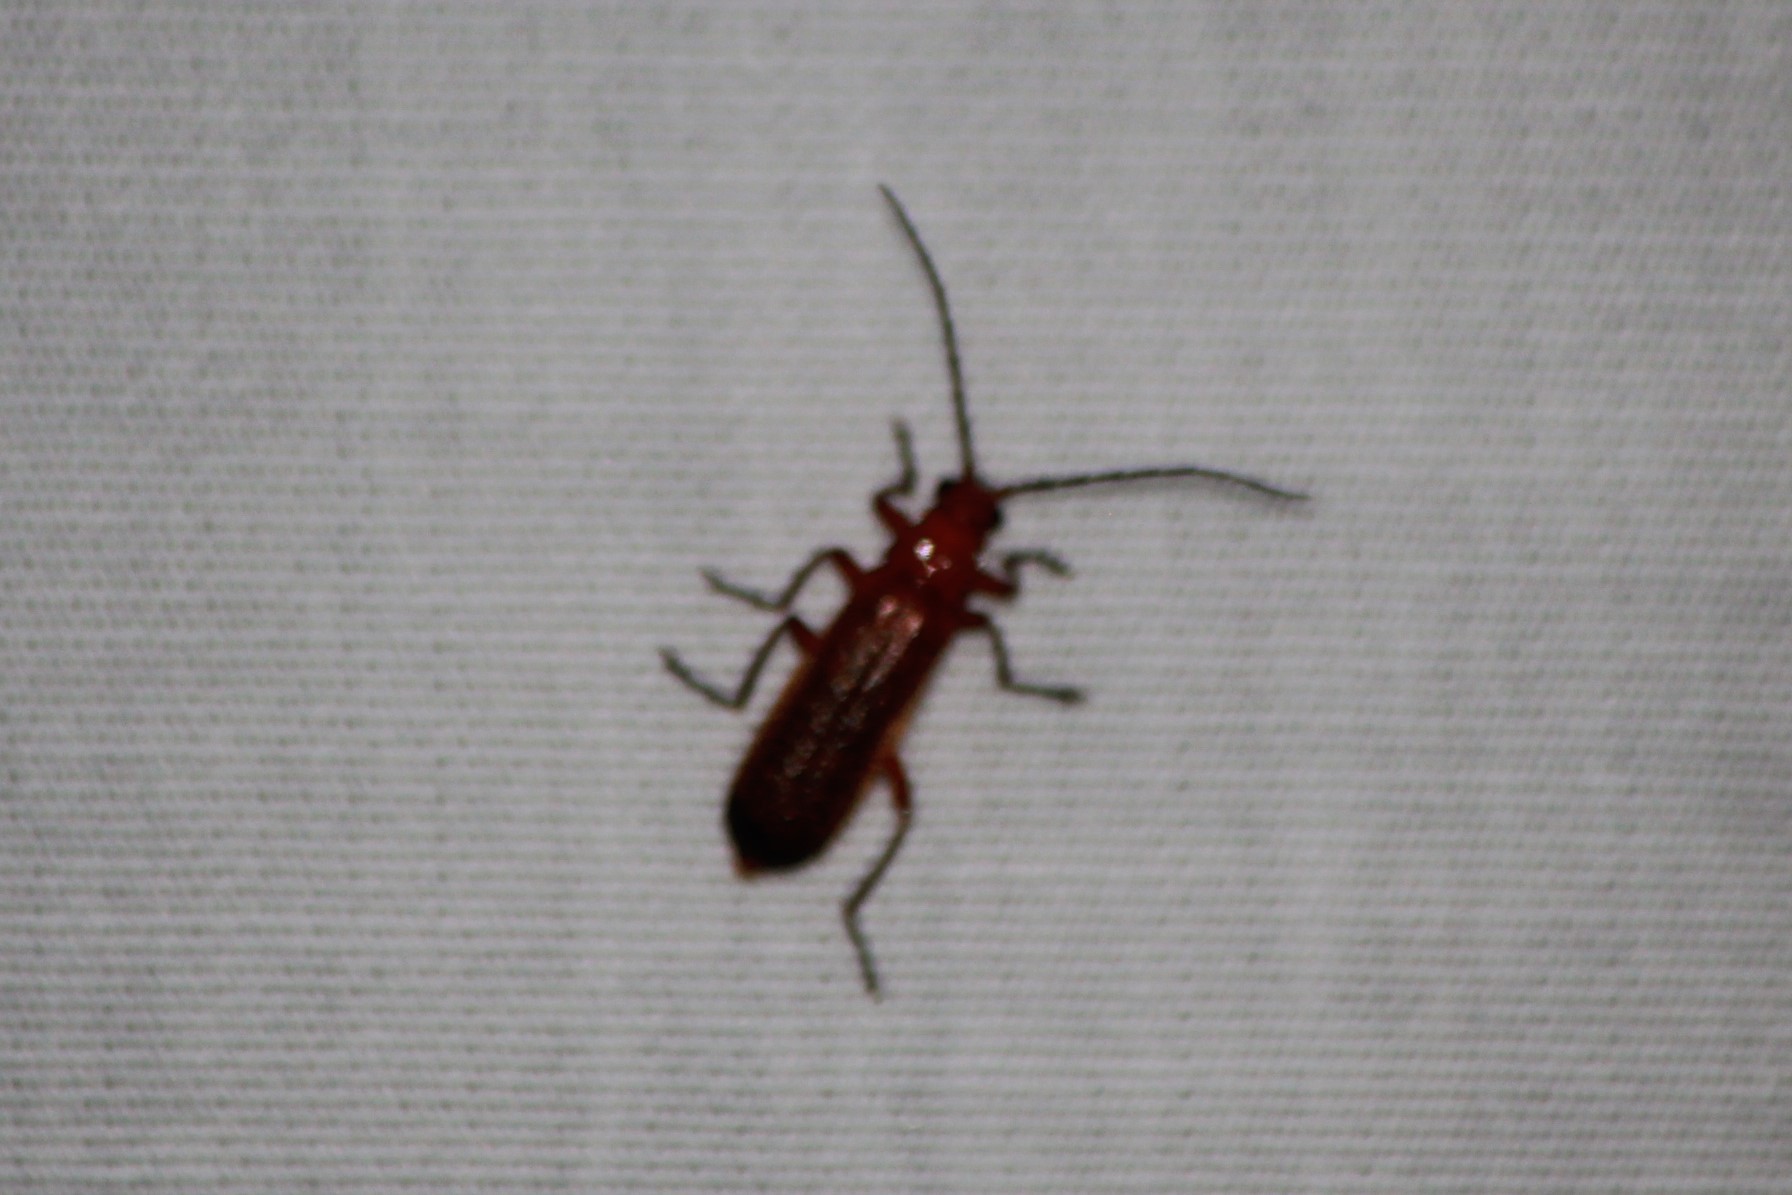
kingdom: Animalia
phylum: Arthropoda
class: Insecta
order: Coleoptera
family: Cantharidae
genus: Rhagonycha
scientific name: Rhagonycha fulva
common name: Common red soldier beetle
